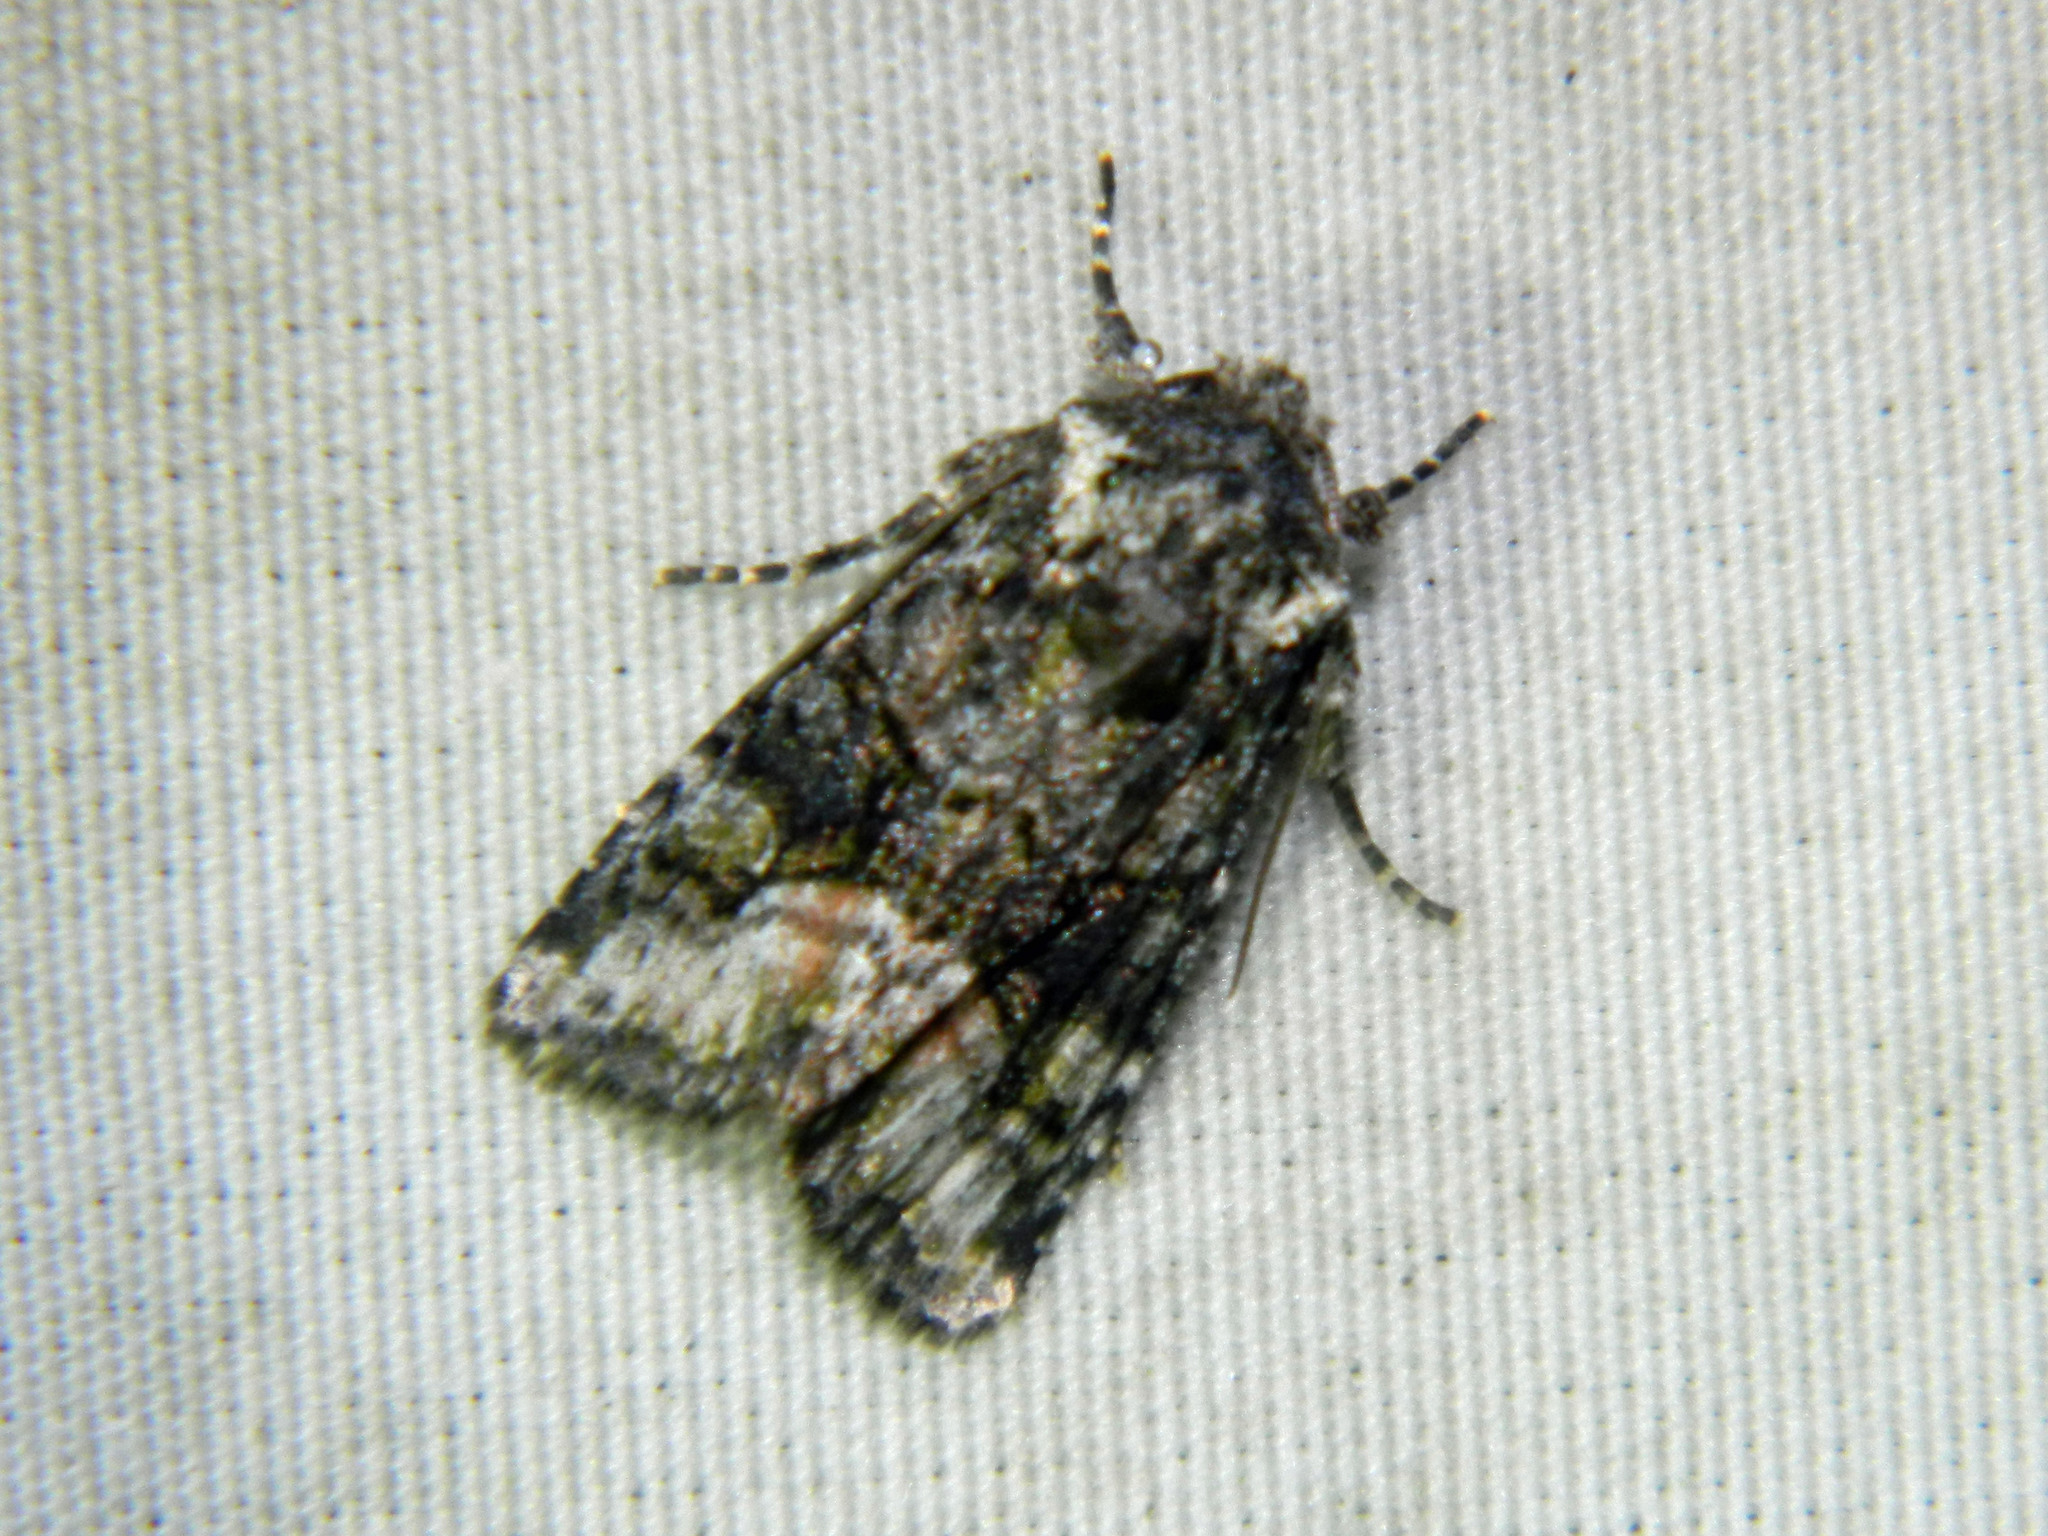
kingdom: Animalia
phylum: Arthropoda
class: Insecta
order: Lepidoptera
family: Noctuidae
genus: Lacinipolia
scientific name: Lacinipolia olivacea
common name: Olive arches moth
